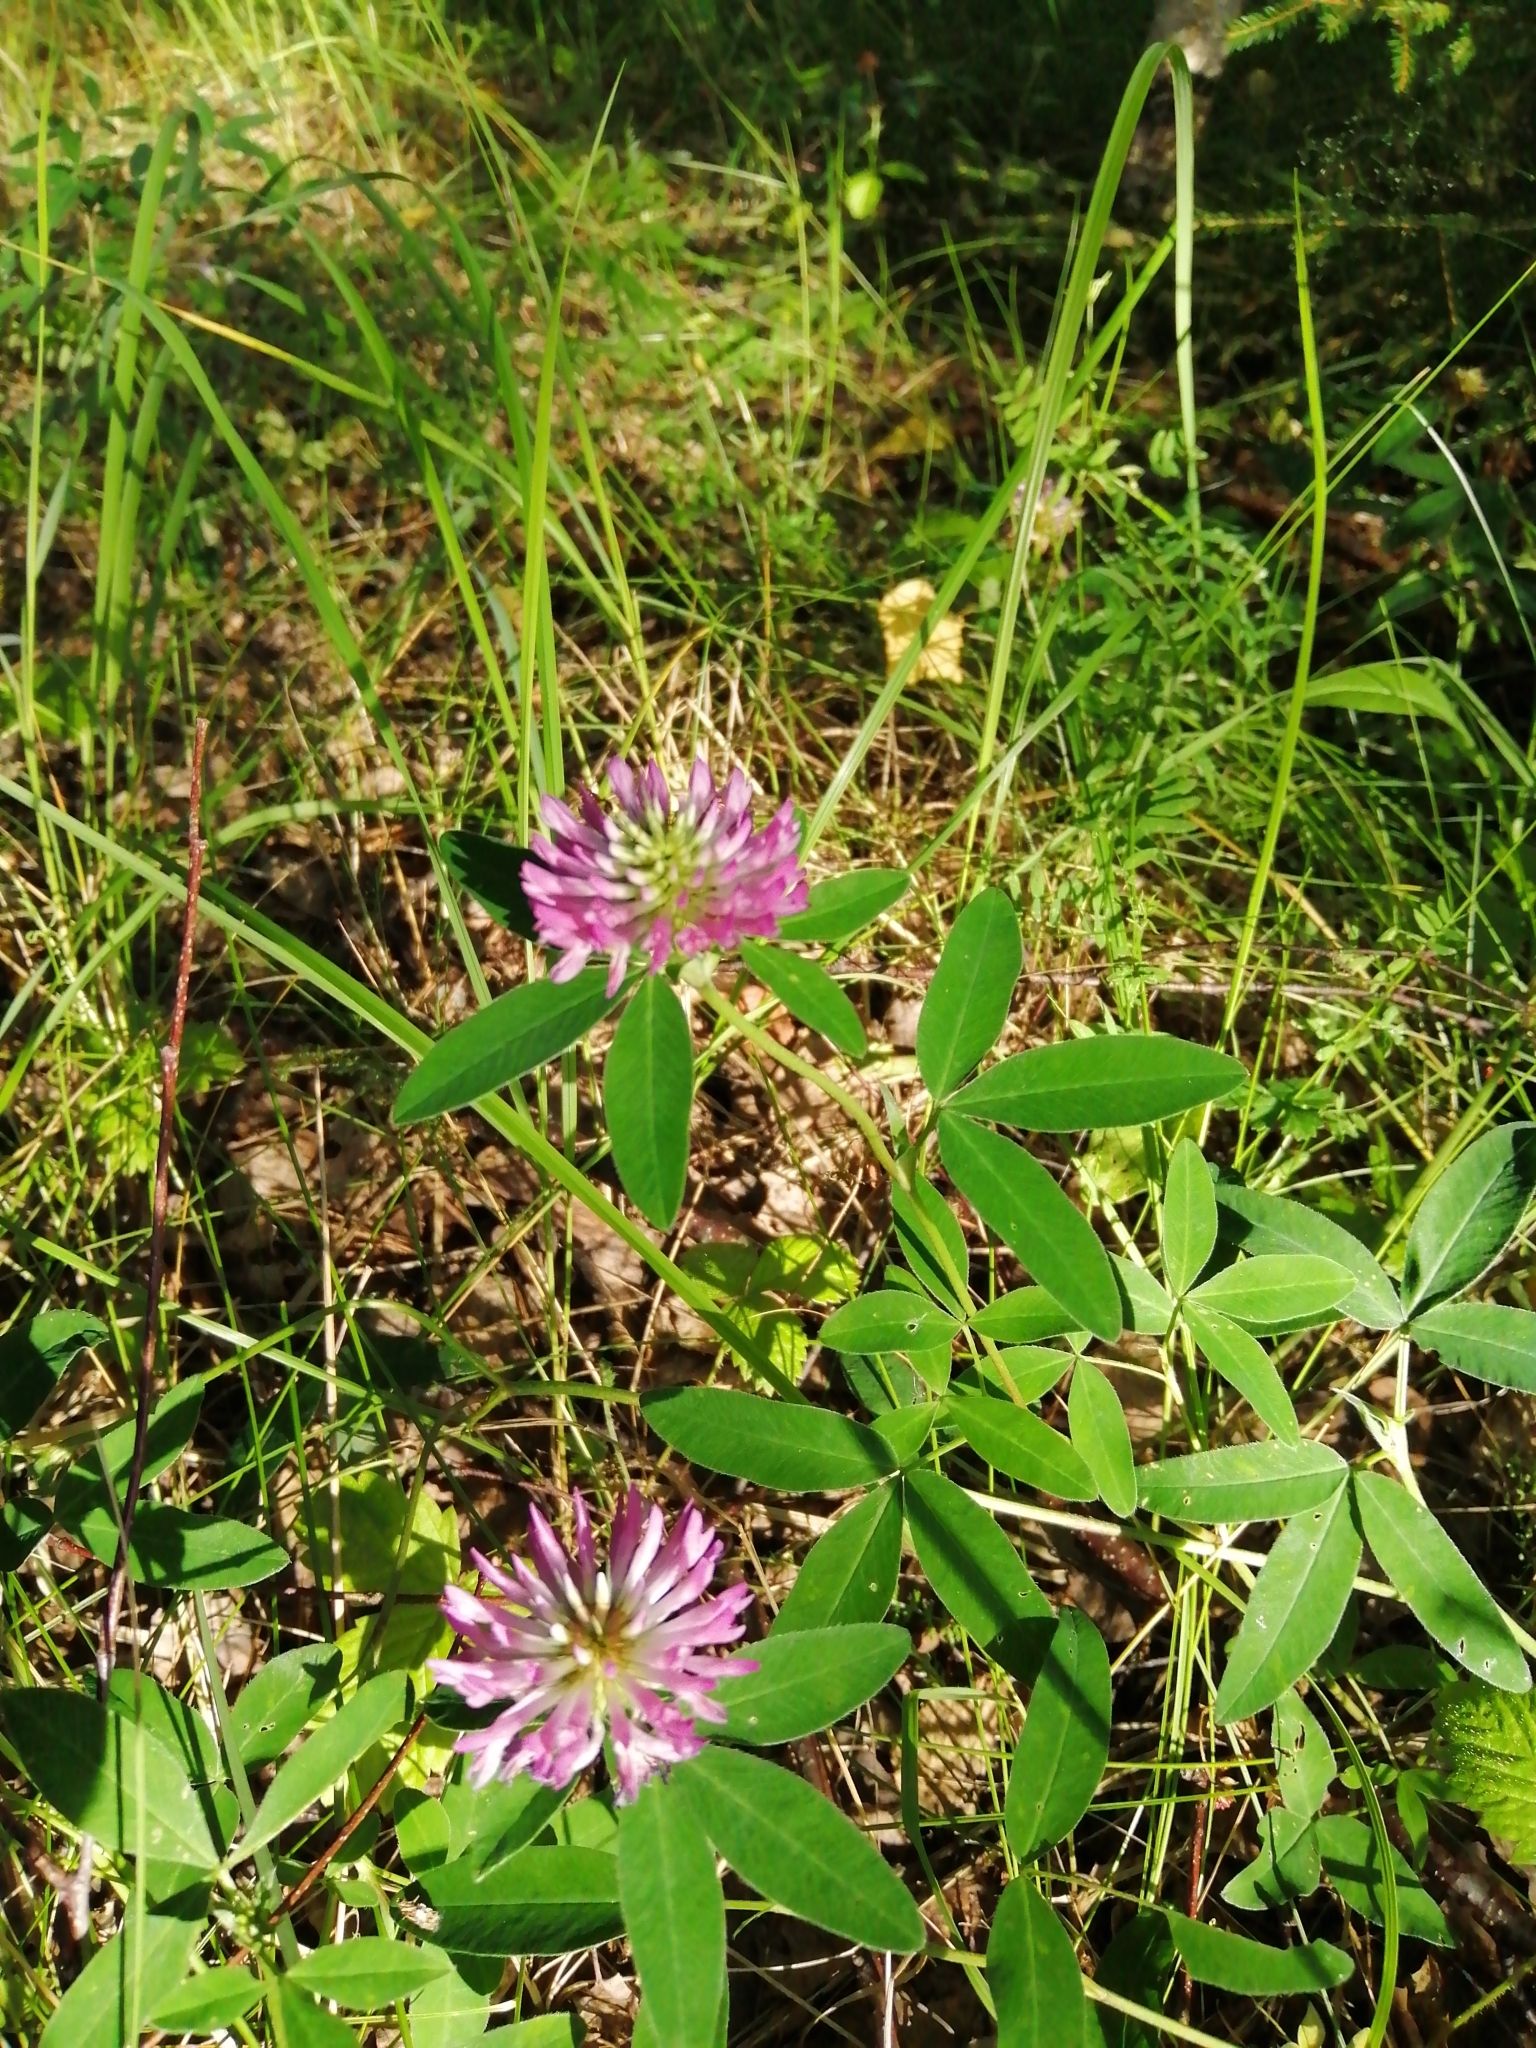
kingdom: Plantae
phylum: Tracheophyta
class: Magnoliopsida
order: Fabales
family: Fabaceae
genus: Trifolium
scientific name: Trifolium medium
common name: Zigzag clover
